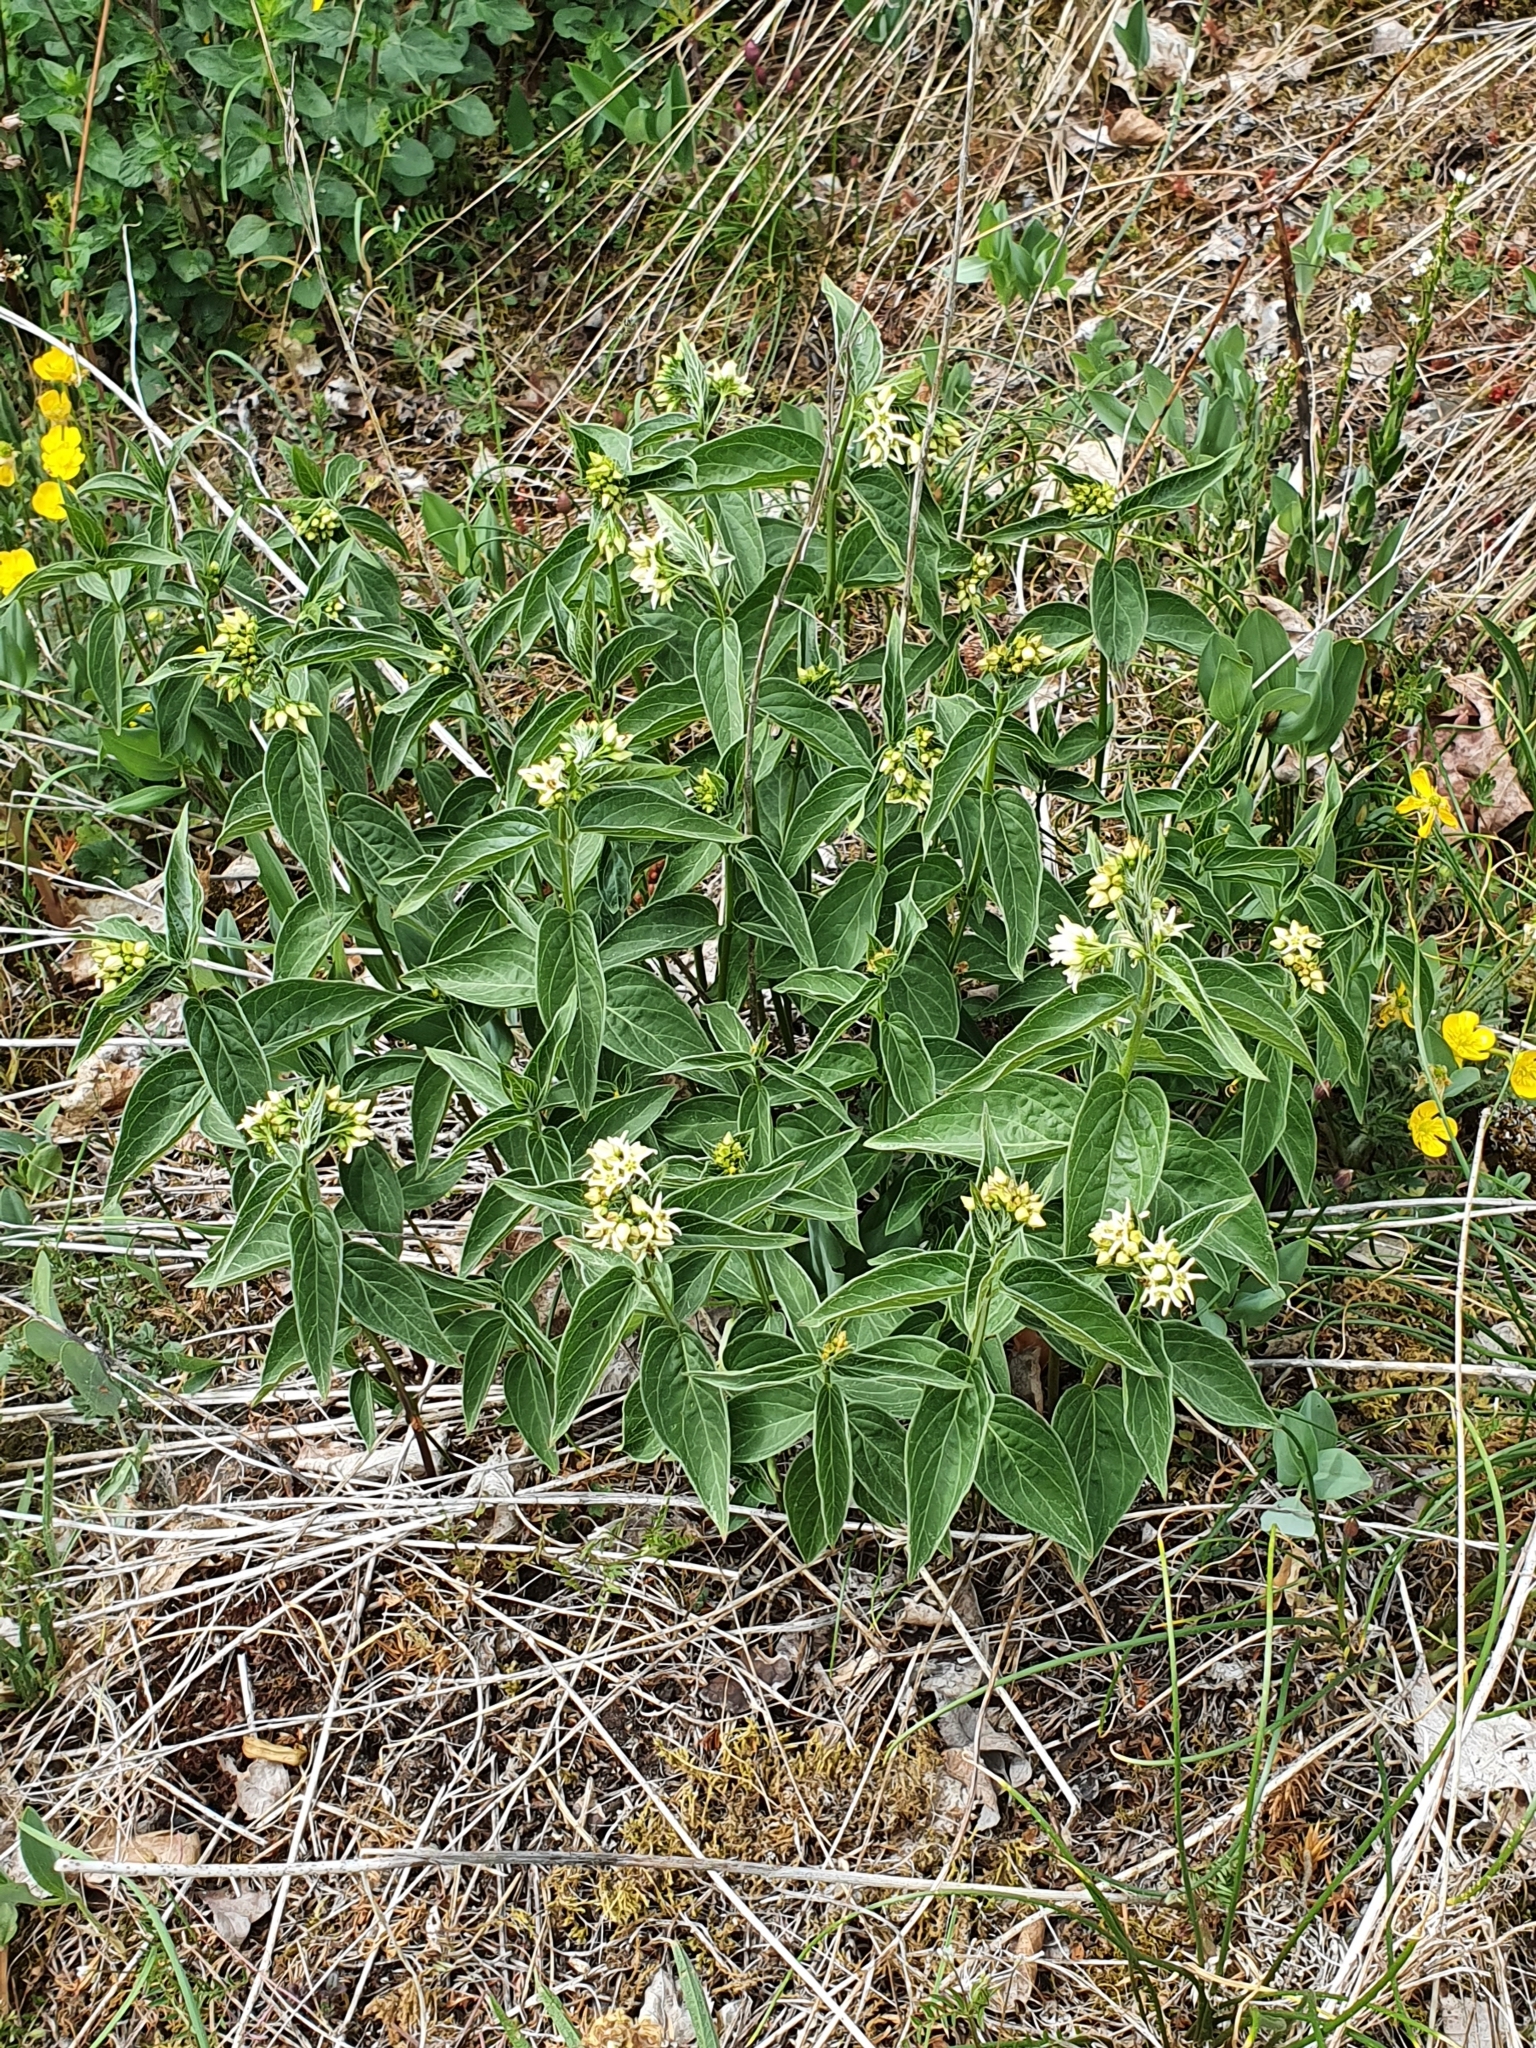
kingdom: Plantae
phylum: Tracheophyta
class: Magnoliopsida
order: Gentianales
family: Apocynaceae
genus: Vincetoxicum
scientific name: Vincetoxicum hirundinaria
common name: White swallowwort
